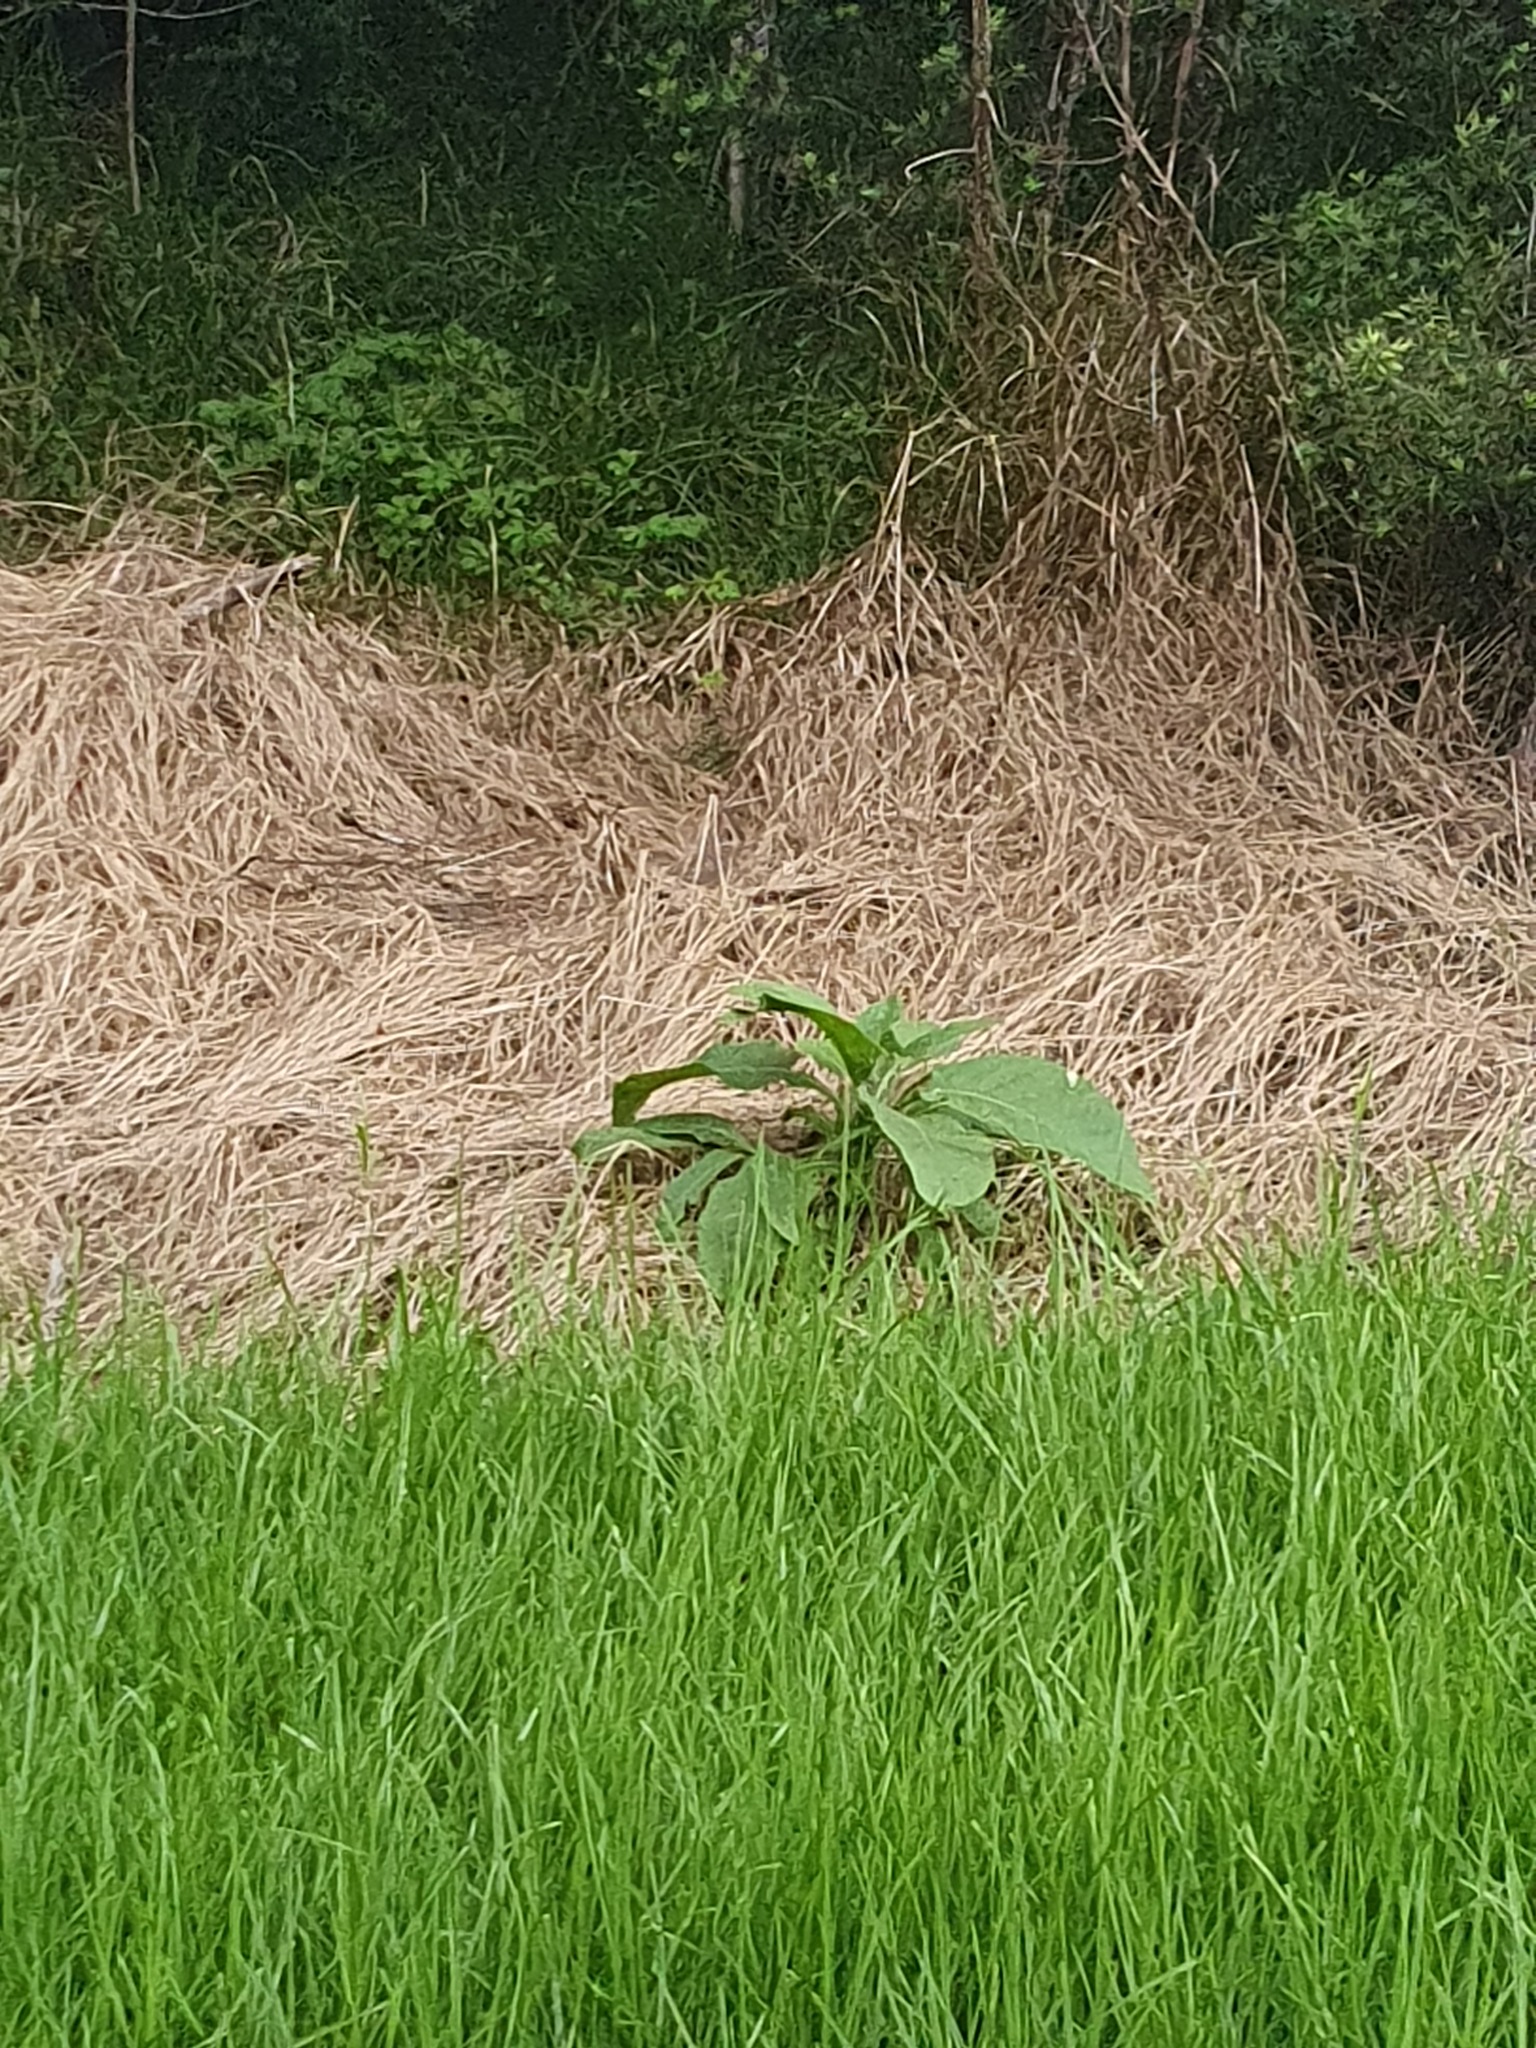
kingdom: Plantae
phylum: Tracheophyta
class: Magnoliopsida
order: Solanales
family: Solanaceae
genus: Solanum
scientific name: Solanum mauritianum
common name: Earleaf nightshade
